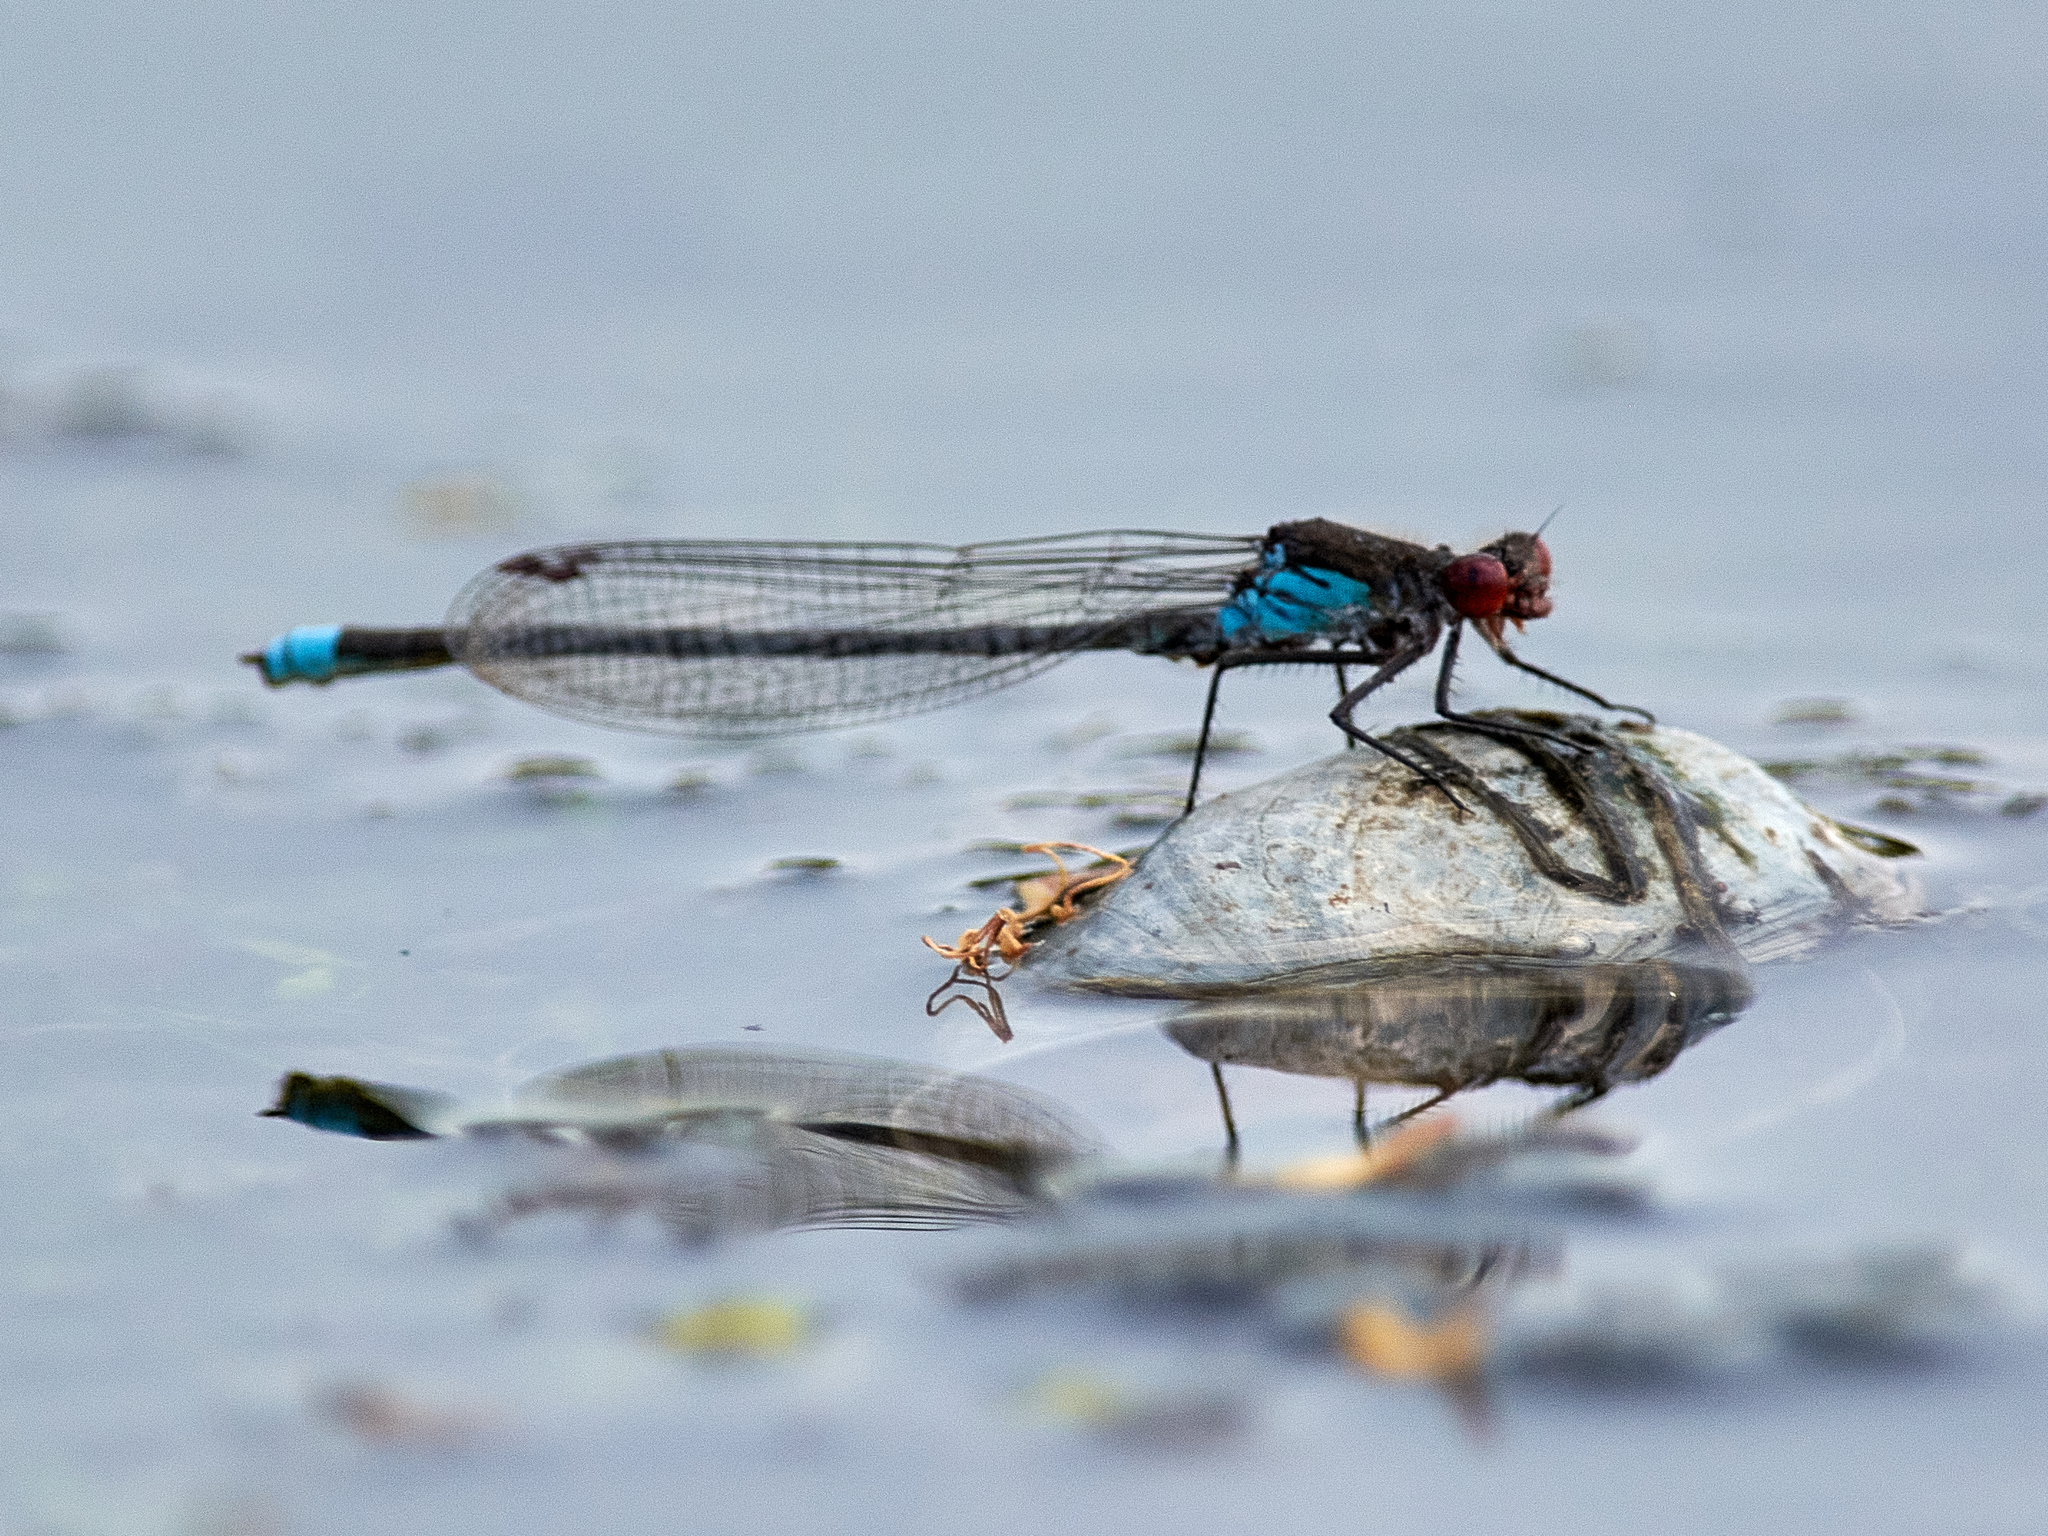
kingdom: Animalia
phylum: Arthropoda
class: Insecta
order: Odonata
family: Coenagrionidae
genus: Erythromma
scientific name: Erythromma najas
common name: Red-eyed damselfly
